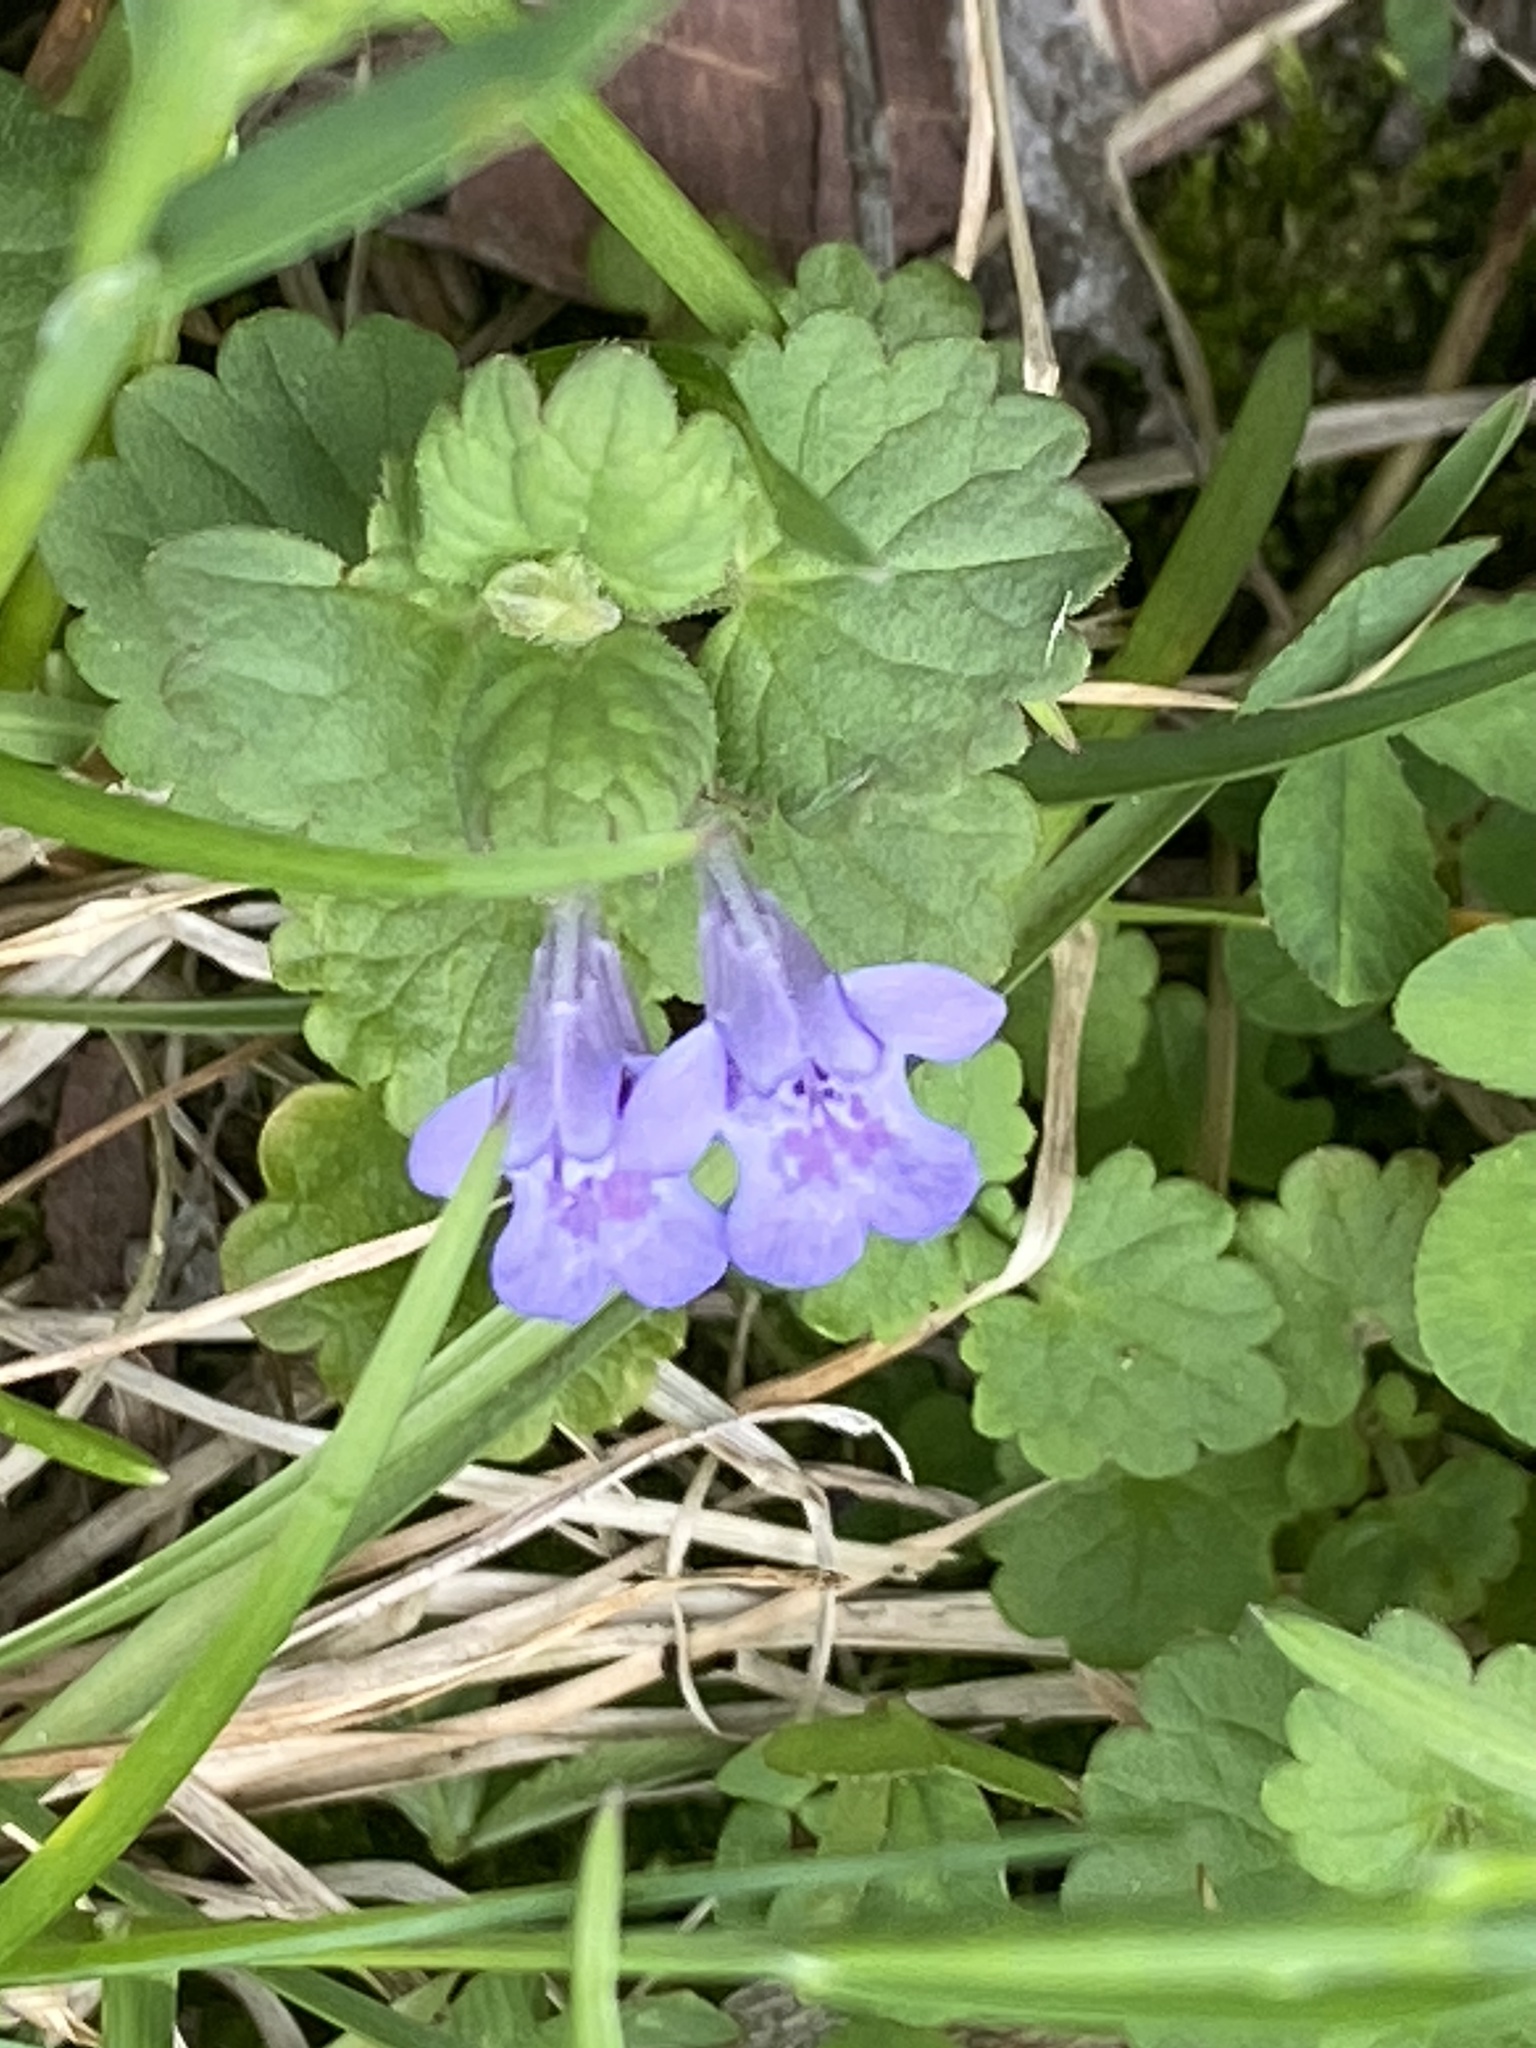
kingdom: Plantae
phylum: Tracheophyta
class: Magnoliopsida
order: Lamiales
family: Lamiaceae
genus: Glechoma
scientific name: Glechoma hederacea
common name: Ground ivy
